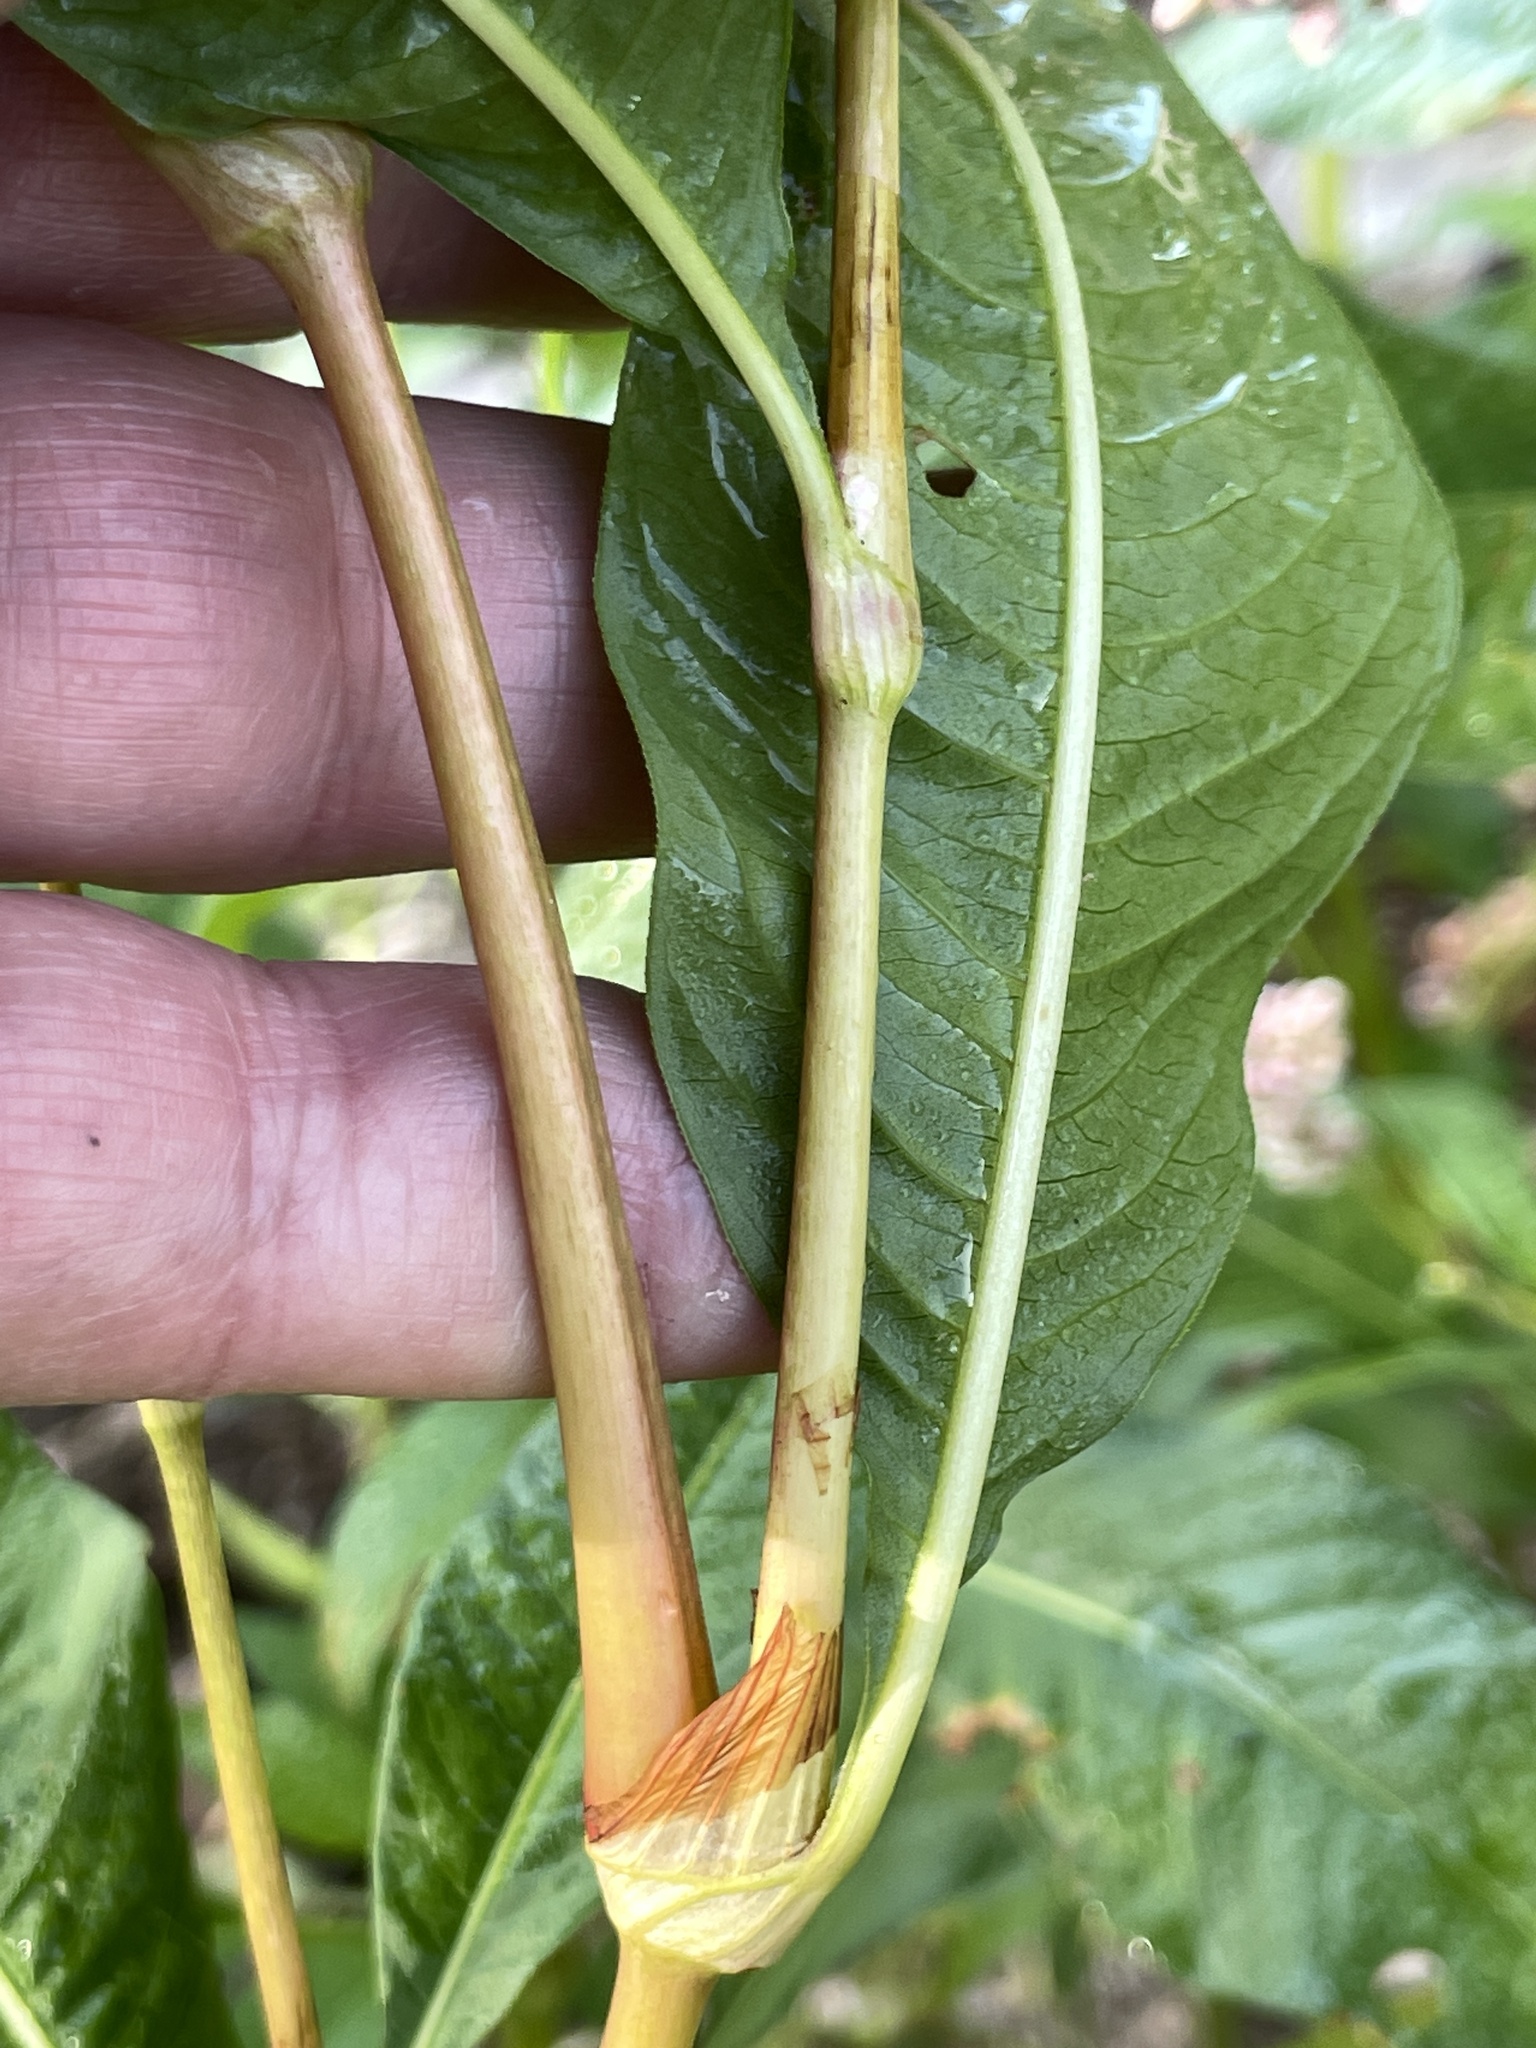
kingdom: Plantae
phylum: Tracheophyta
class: Magnoliopsida
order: Caryophyllales
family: Polygonaceae
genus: Persicaria
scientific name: Persicaria pensylvanica
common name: Pinkweed
